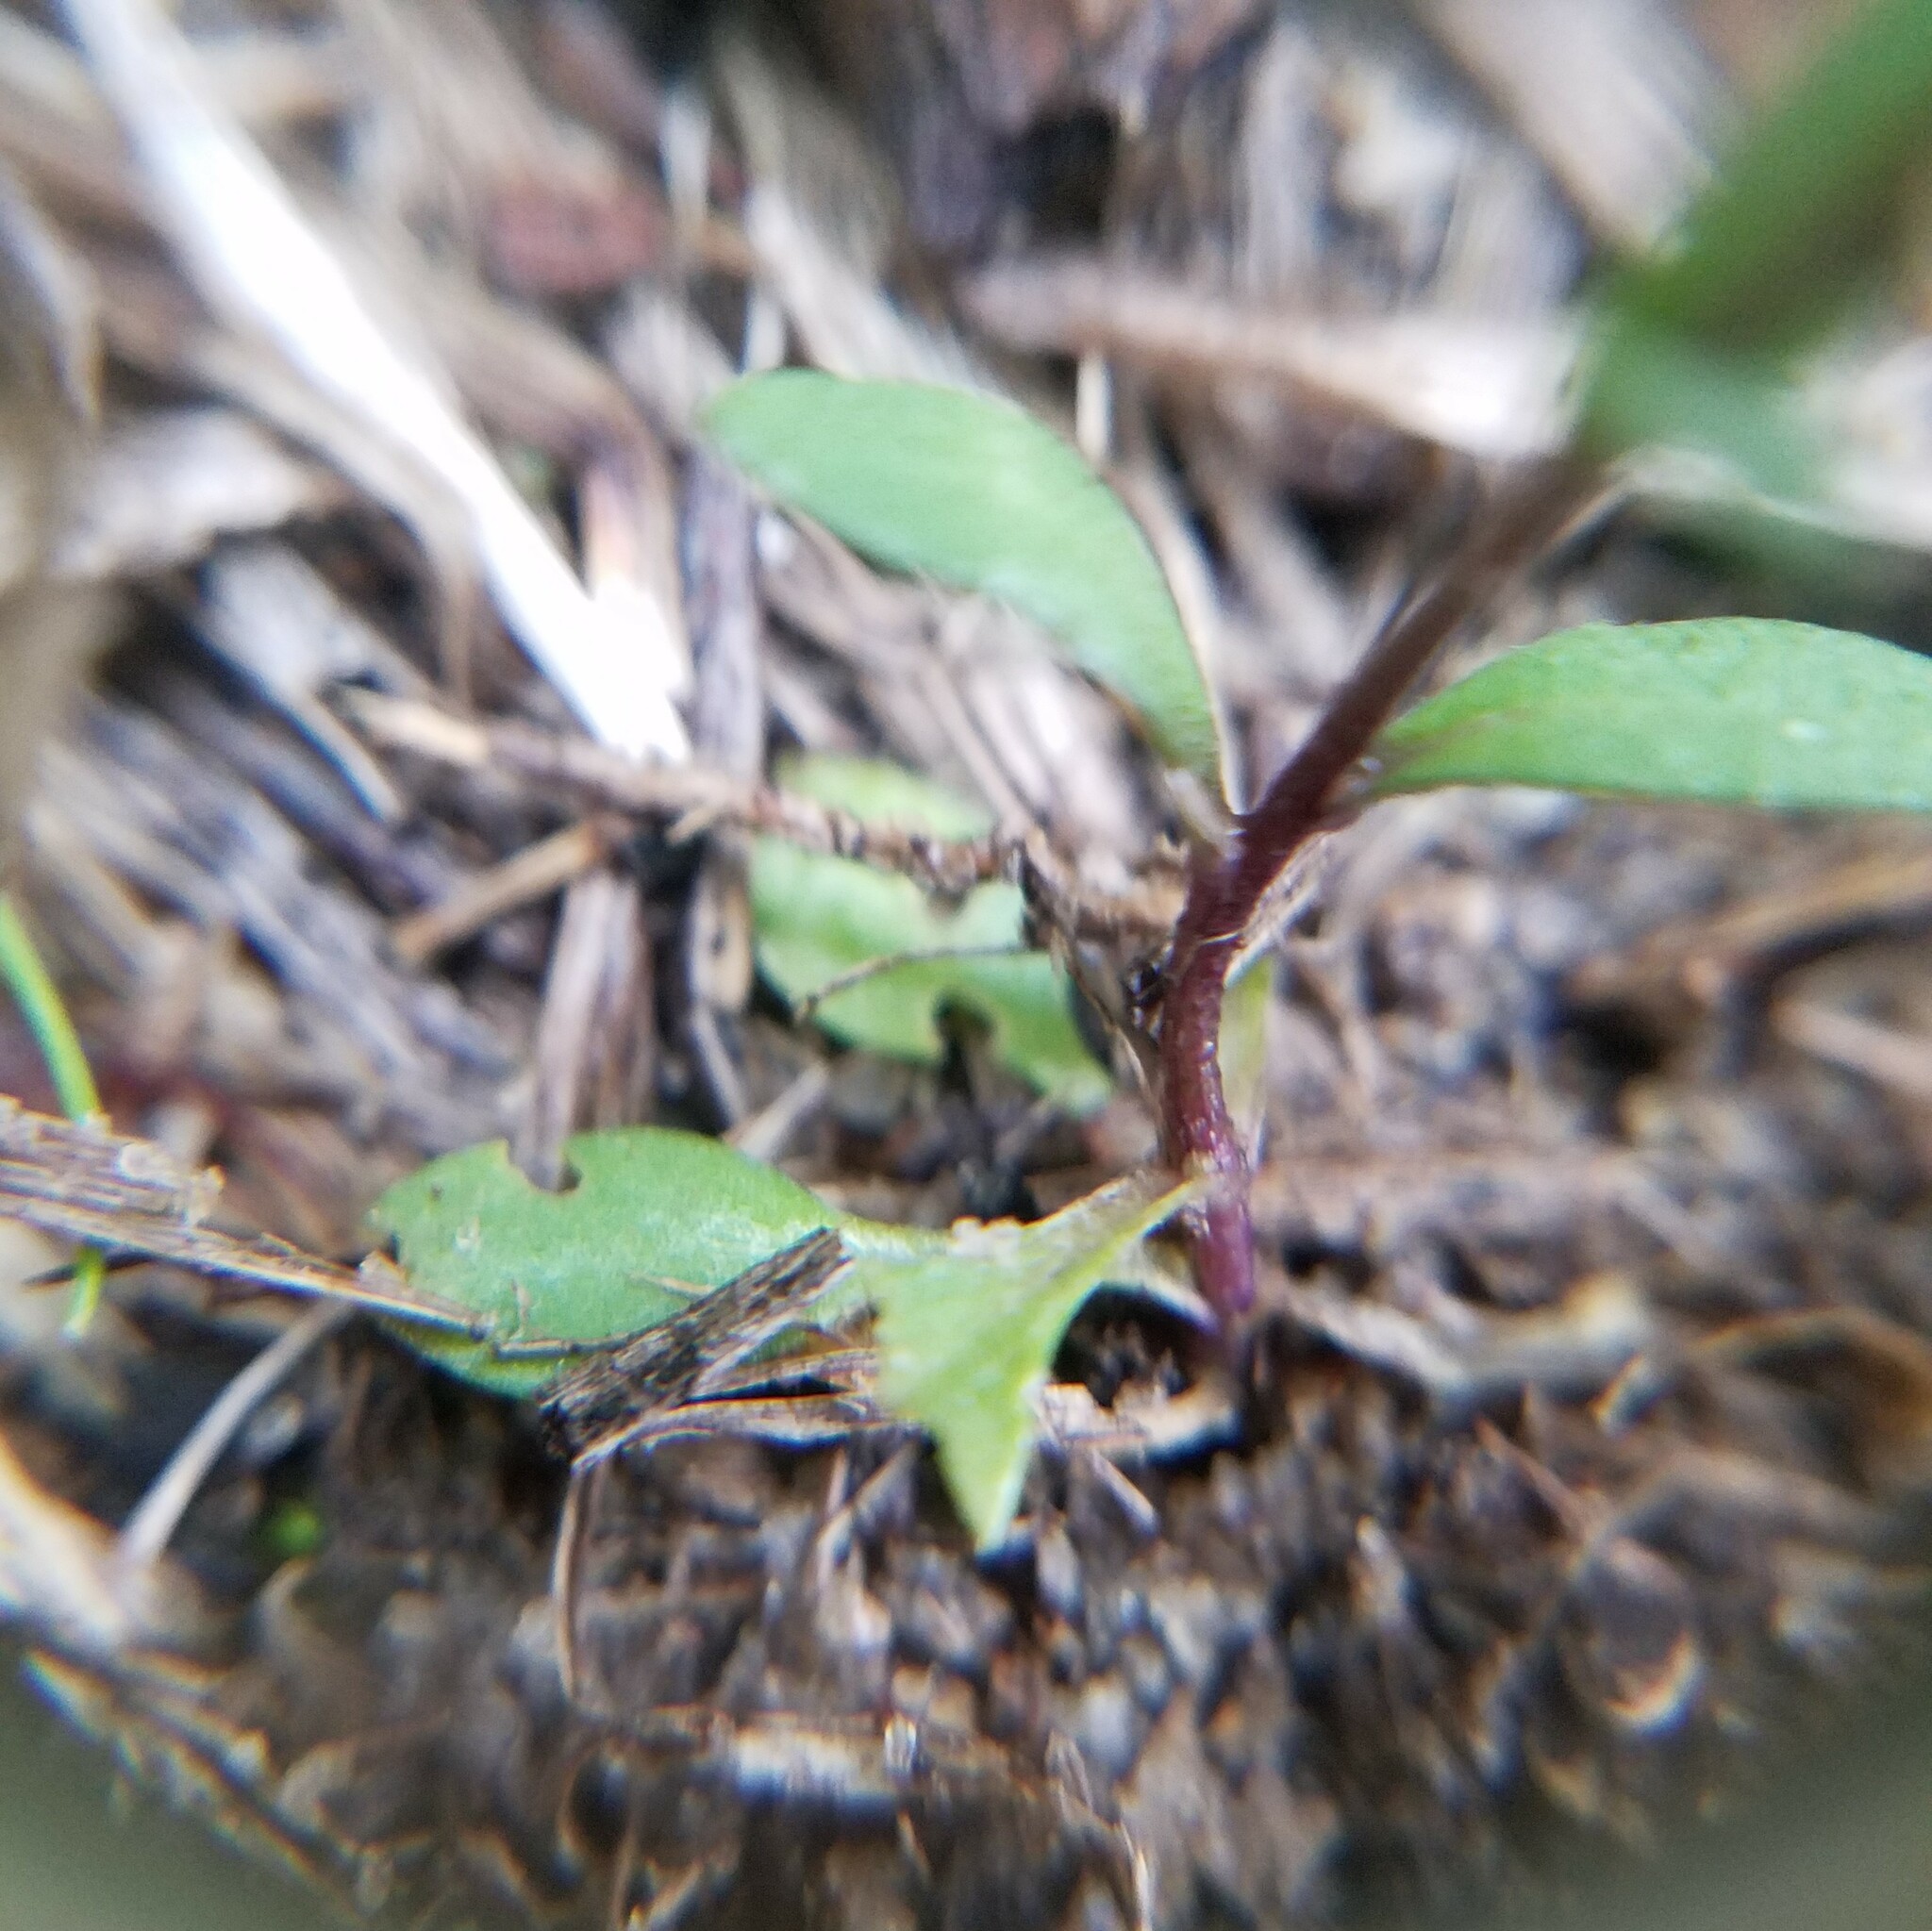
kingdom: Plantae
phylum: Tracheophyta
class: Magnoliopsida
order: Brassicales
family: Brassicaceae
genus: Abdra
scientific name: Abdra brachycarpa
